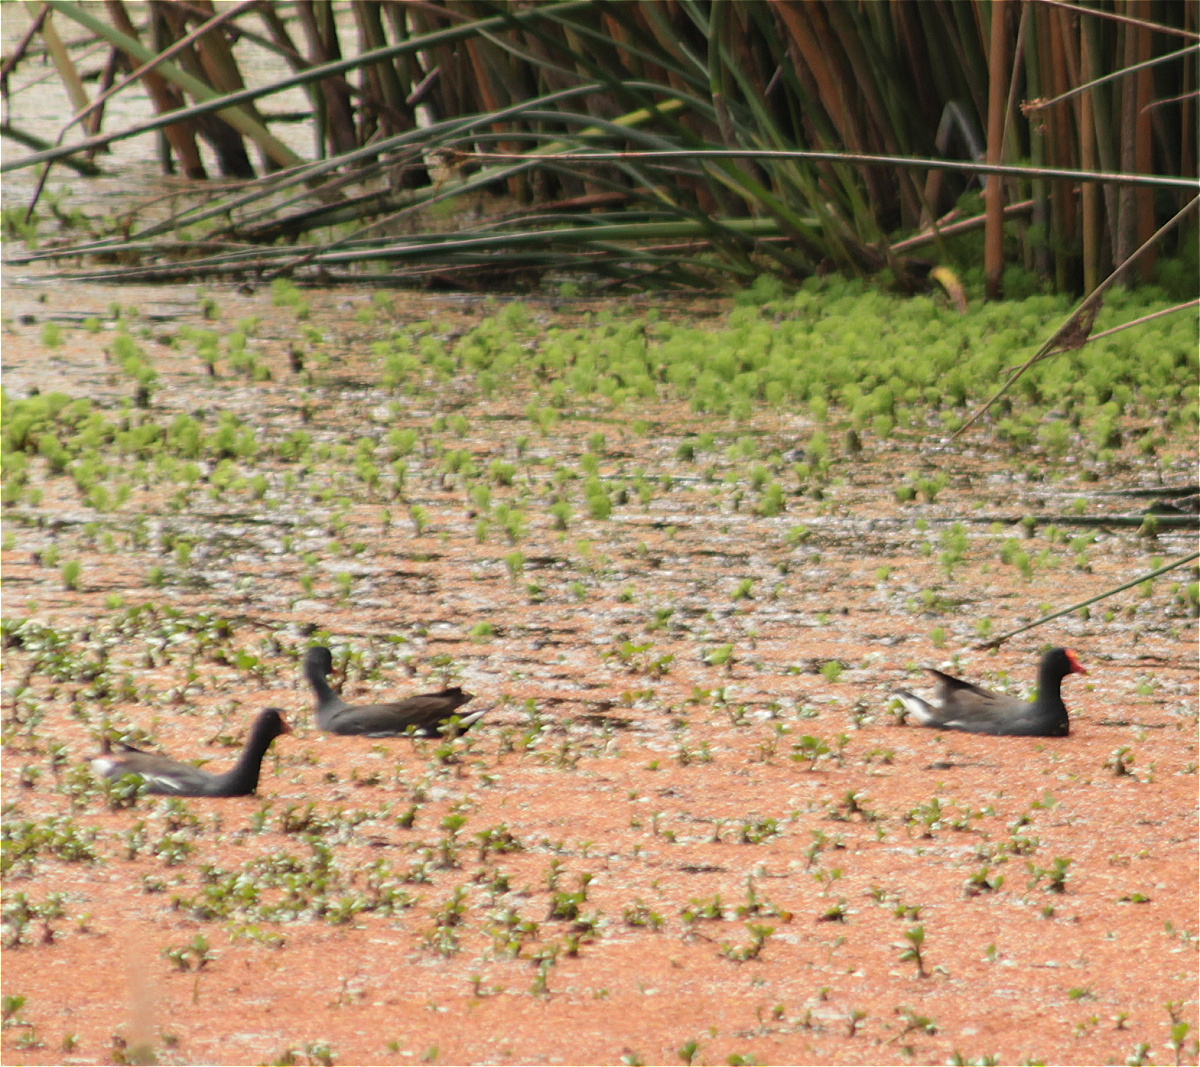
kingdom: Animalia
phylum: Chordata
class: Aves
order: Gruiformes
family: Rallidae
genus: Gallinula
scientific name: Gallinula chloropus
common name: Common moorhen
